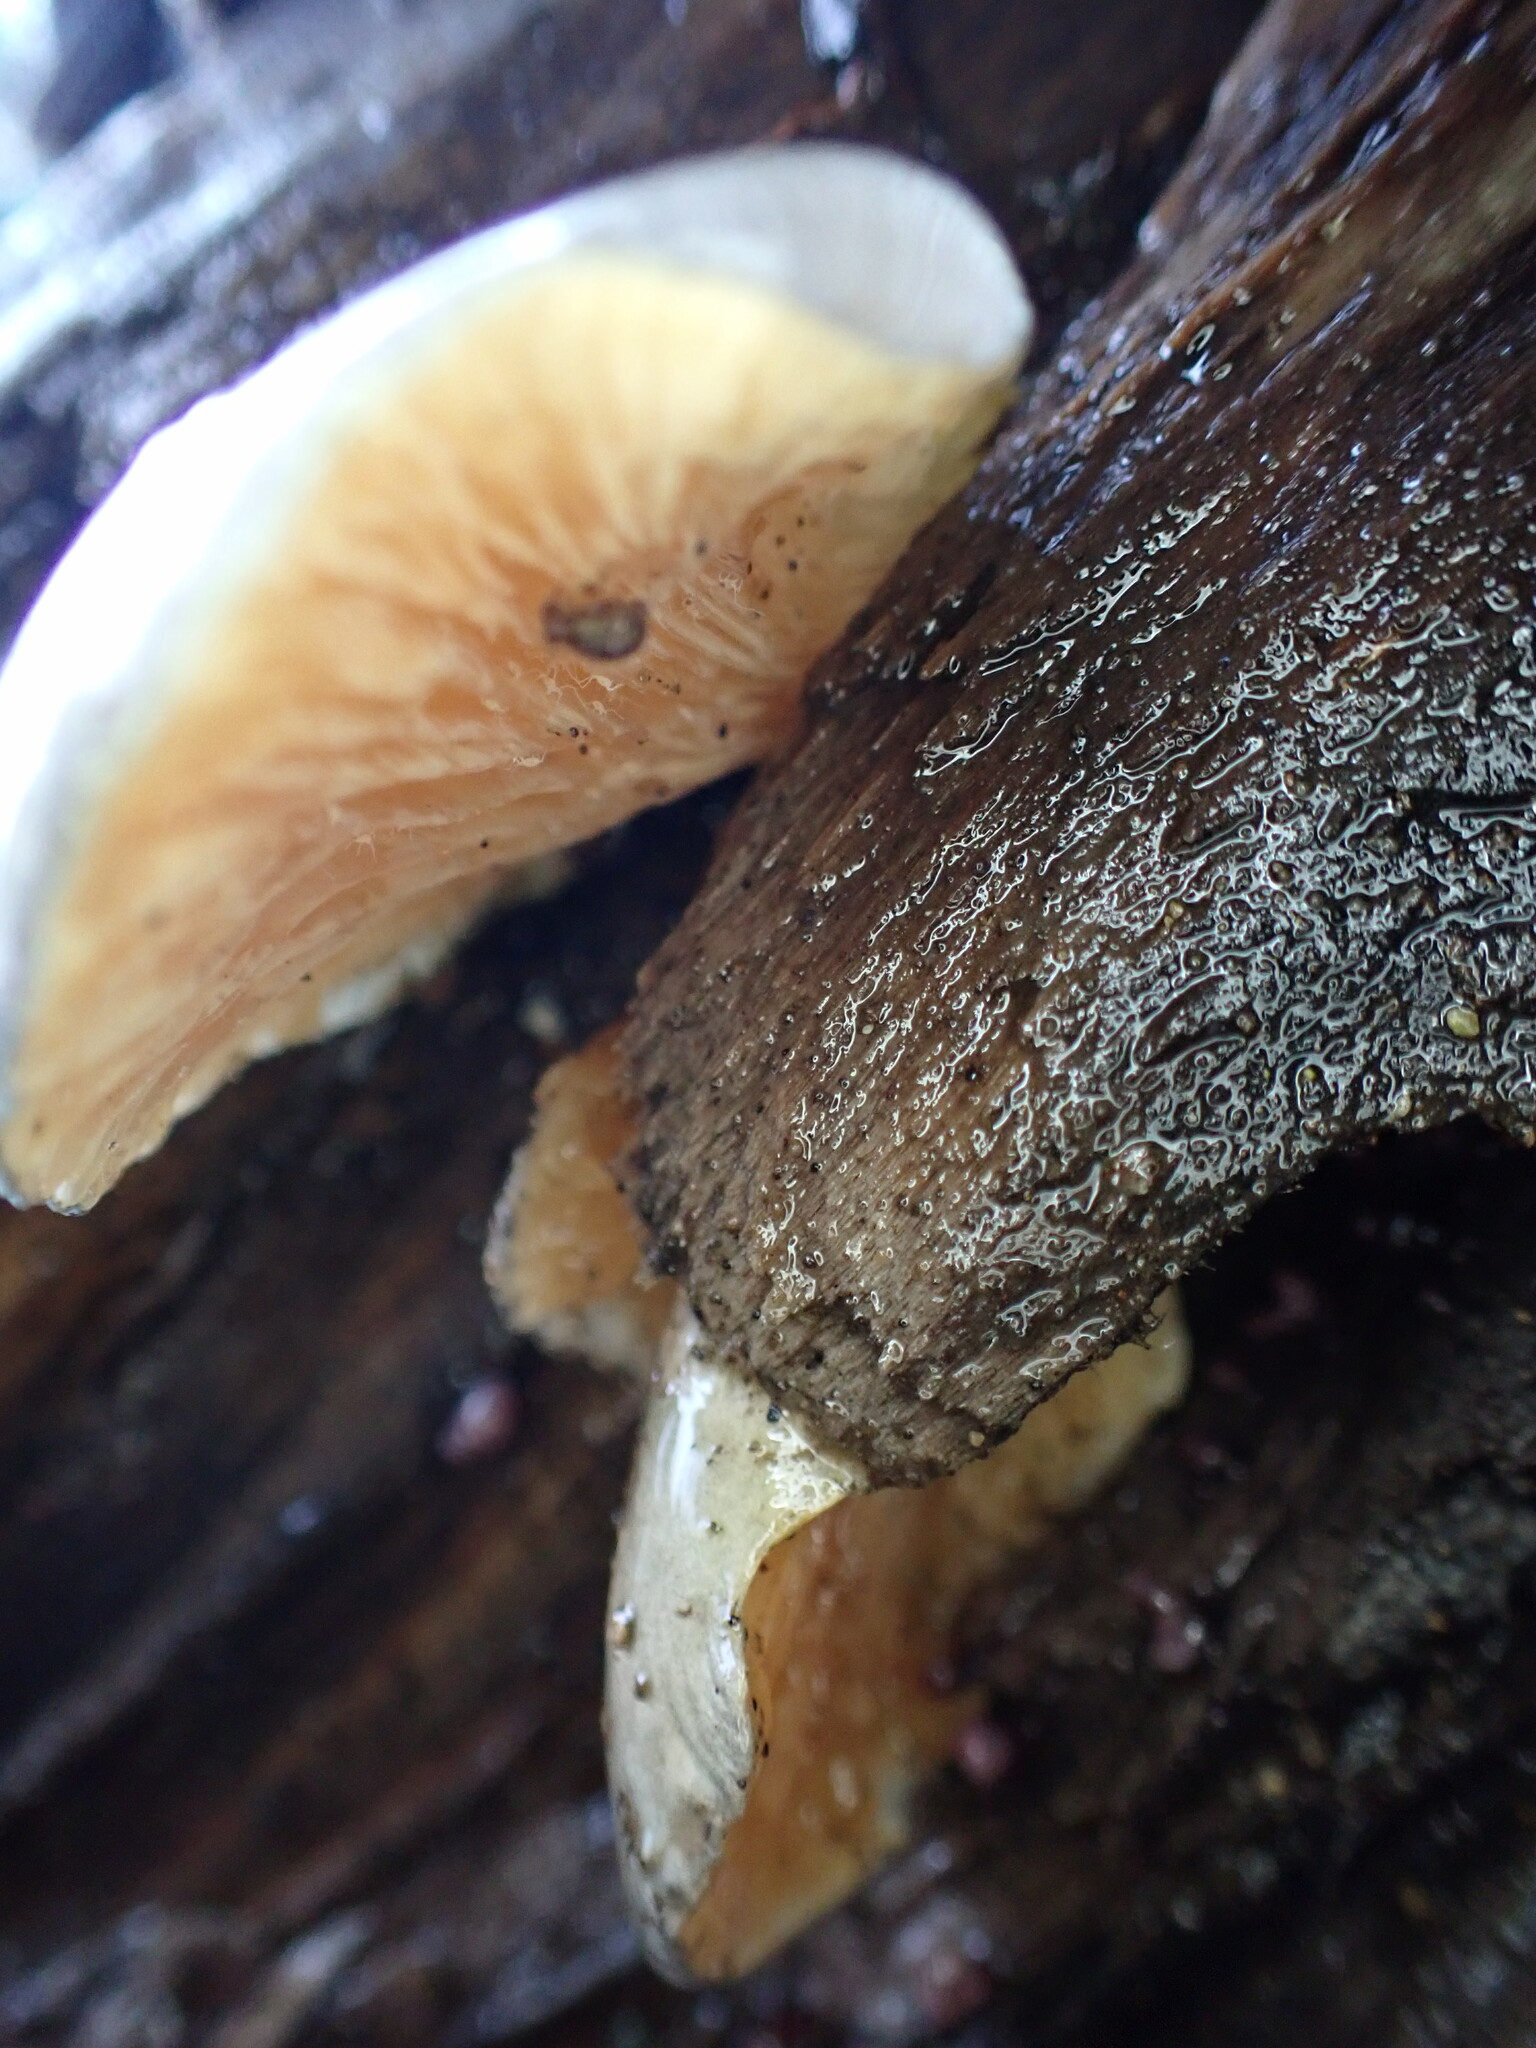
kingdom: Fungi
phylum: Basidiomycota
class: Agaricomycetes
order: Agaricales
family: Sarcomyxaceae
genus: Sarcomyxa
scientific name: Sarcomyxa serotina
